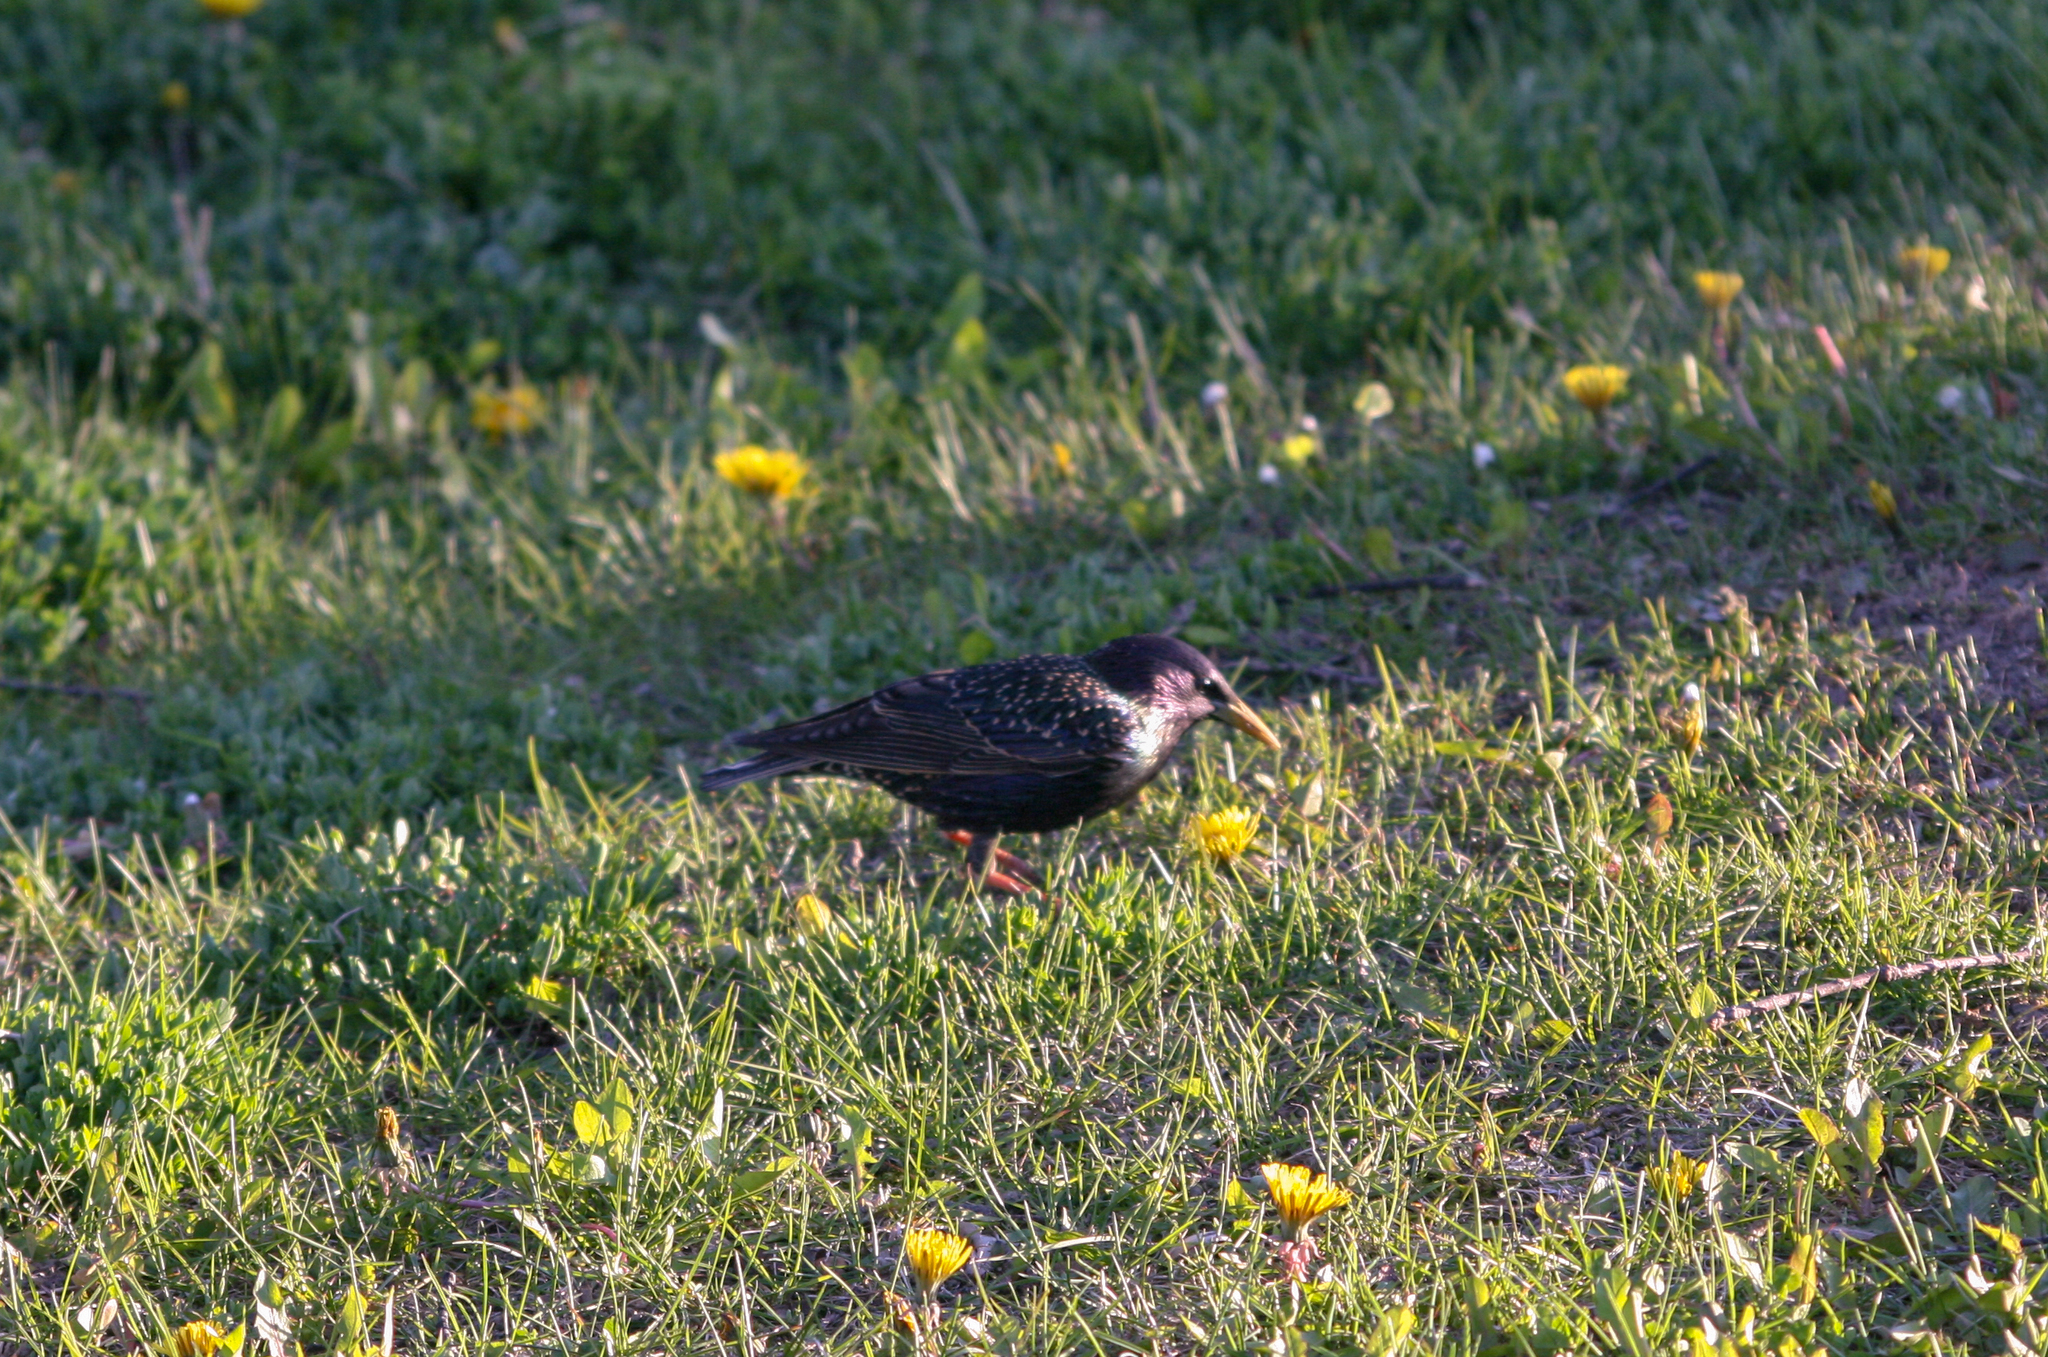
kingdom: Animalia
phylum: Chordata
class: Aves
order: Passeriformes
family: Sturnidae
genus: Sturnus
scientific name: Sturnus vulgaris
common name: Common starling
